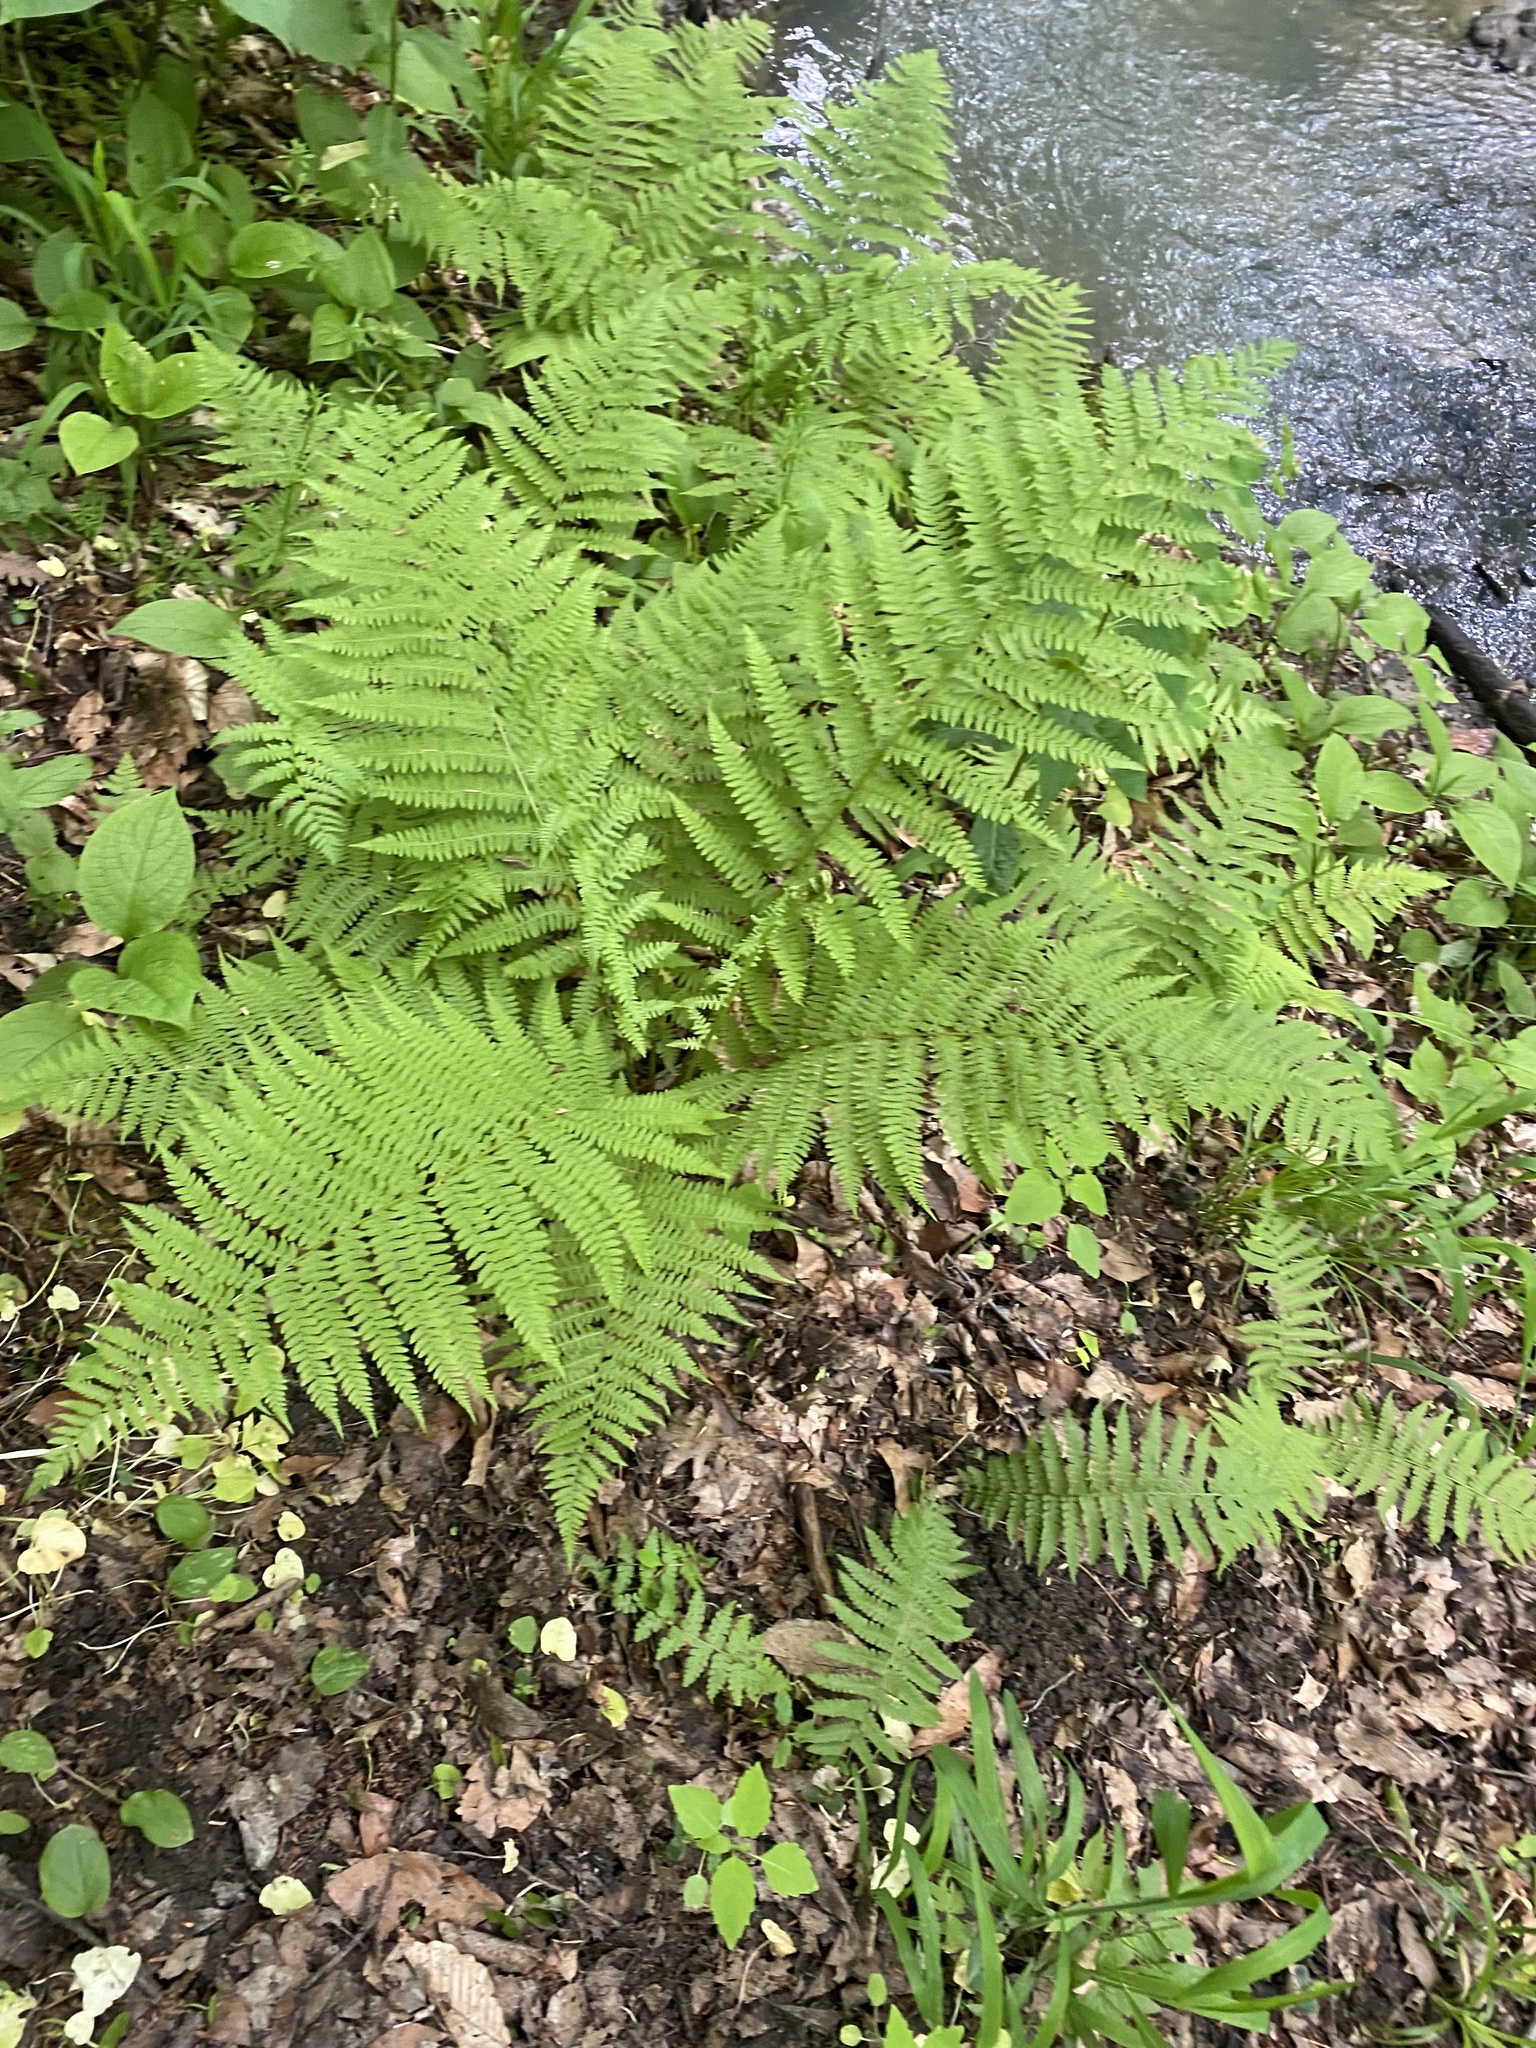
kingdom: Plantae
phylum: Tracheophyta
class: Polypodiopsida
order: Polypodiales
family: Athyriaceae
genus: Athyrium
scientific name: Athyrium filix-femina
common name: Lady fern
